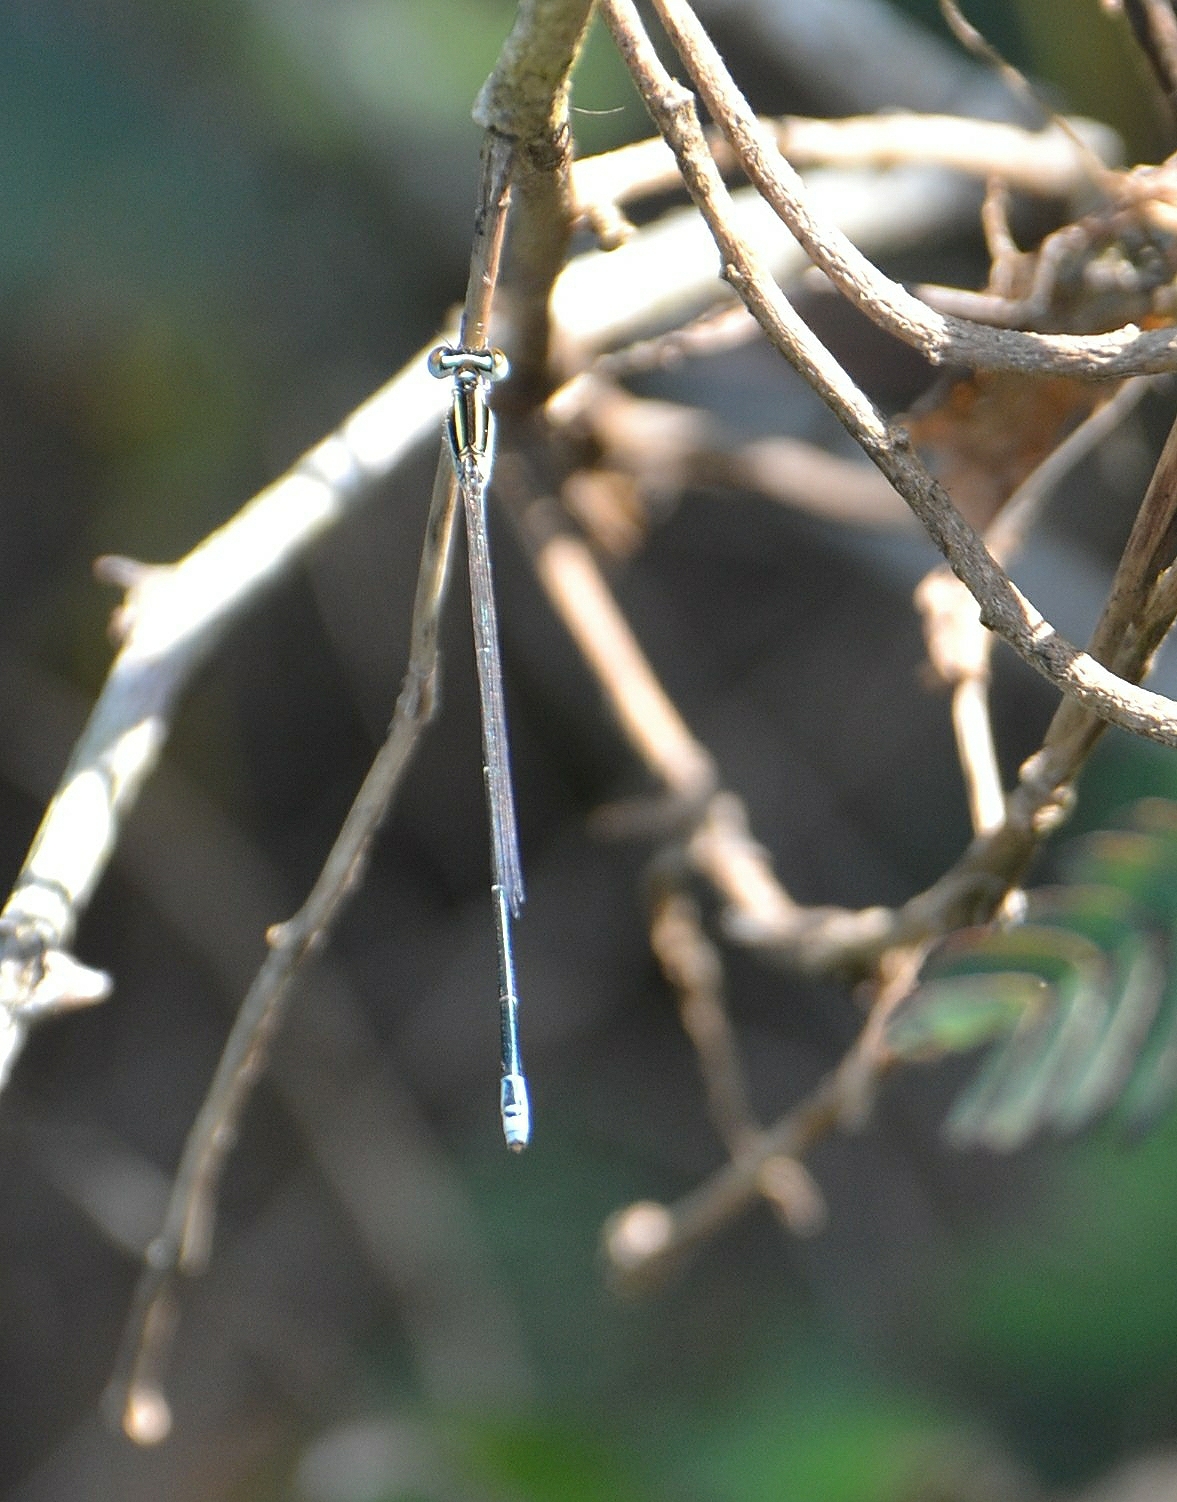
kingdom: Animalia
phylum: Arthropoda
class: Insecta
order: Odonata
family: Coenagrionidae
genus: Aciagrion
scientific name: Aciagrion occidentale
